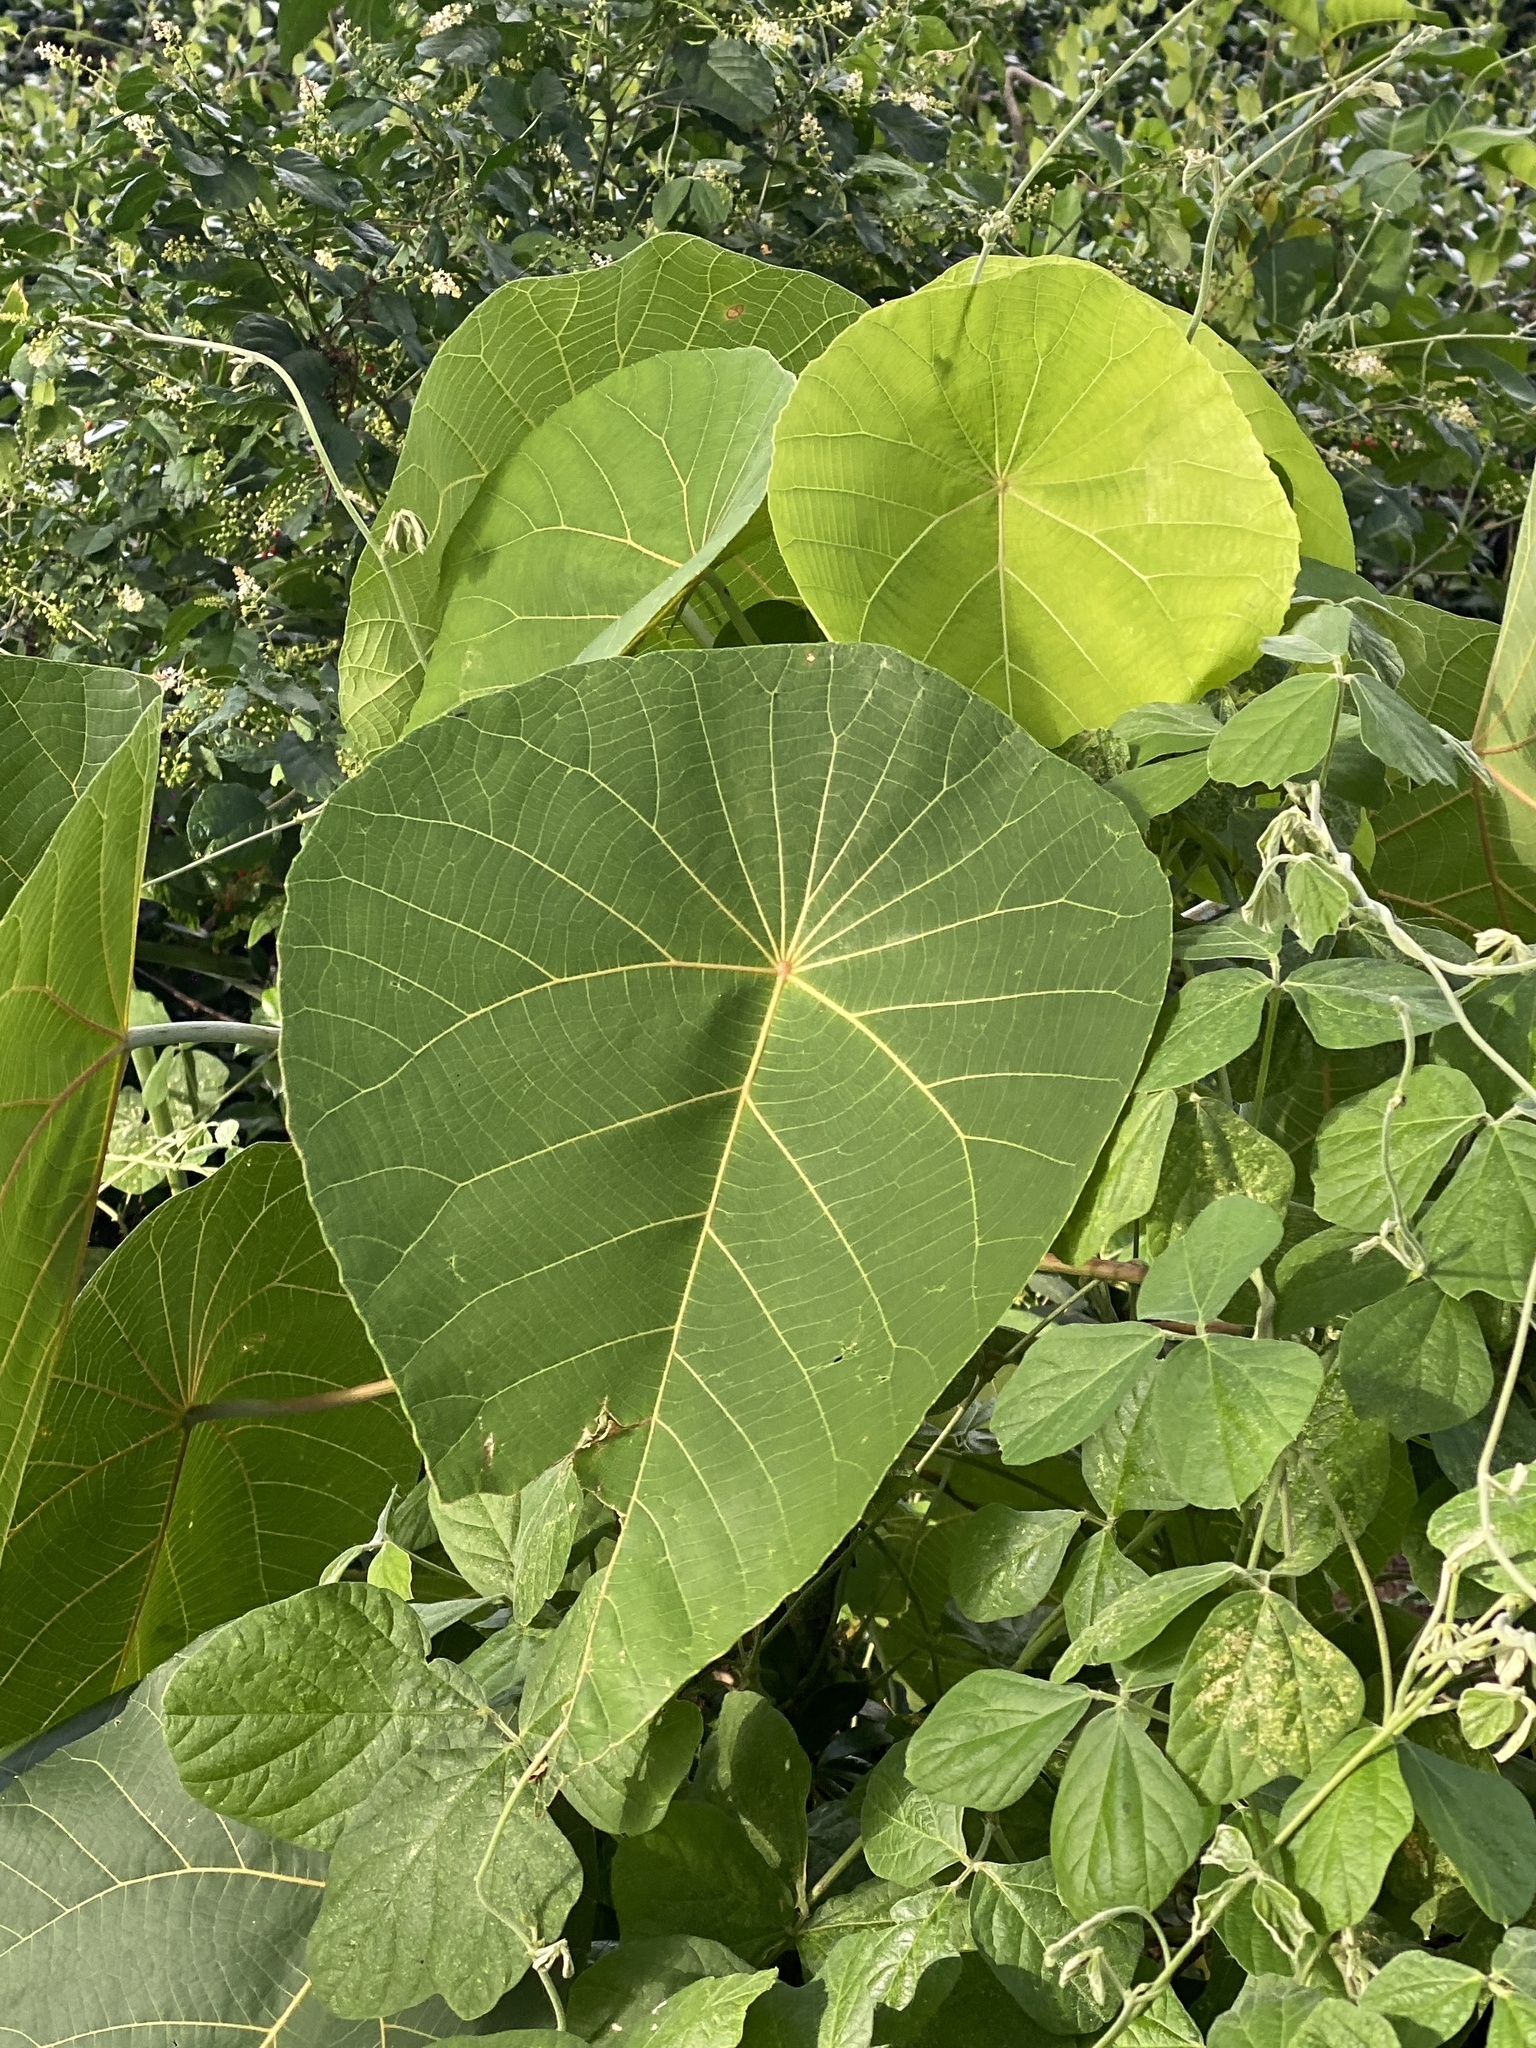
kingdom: Plantae
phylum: Tracheophyta
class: Magnoliopsida
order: Malpighiales
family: Euphorbiaceae
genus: Macaranga
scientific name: Macaranga tanarius
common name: Parasol leaf tree
